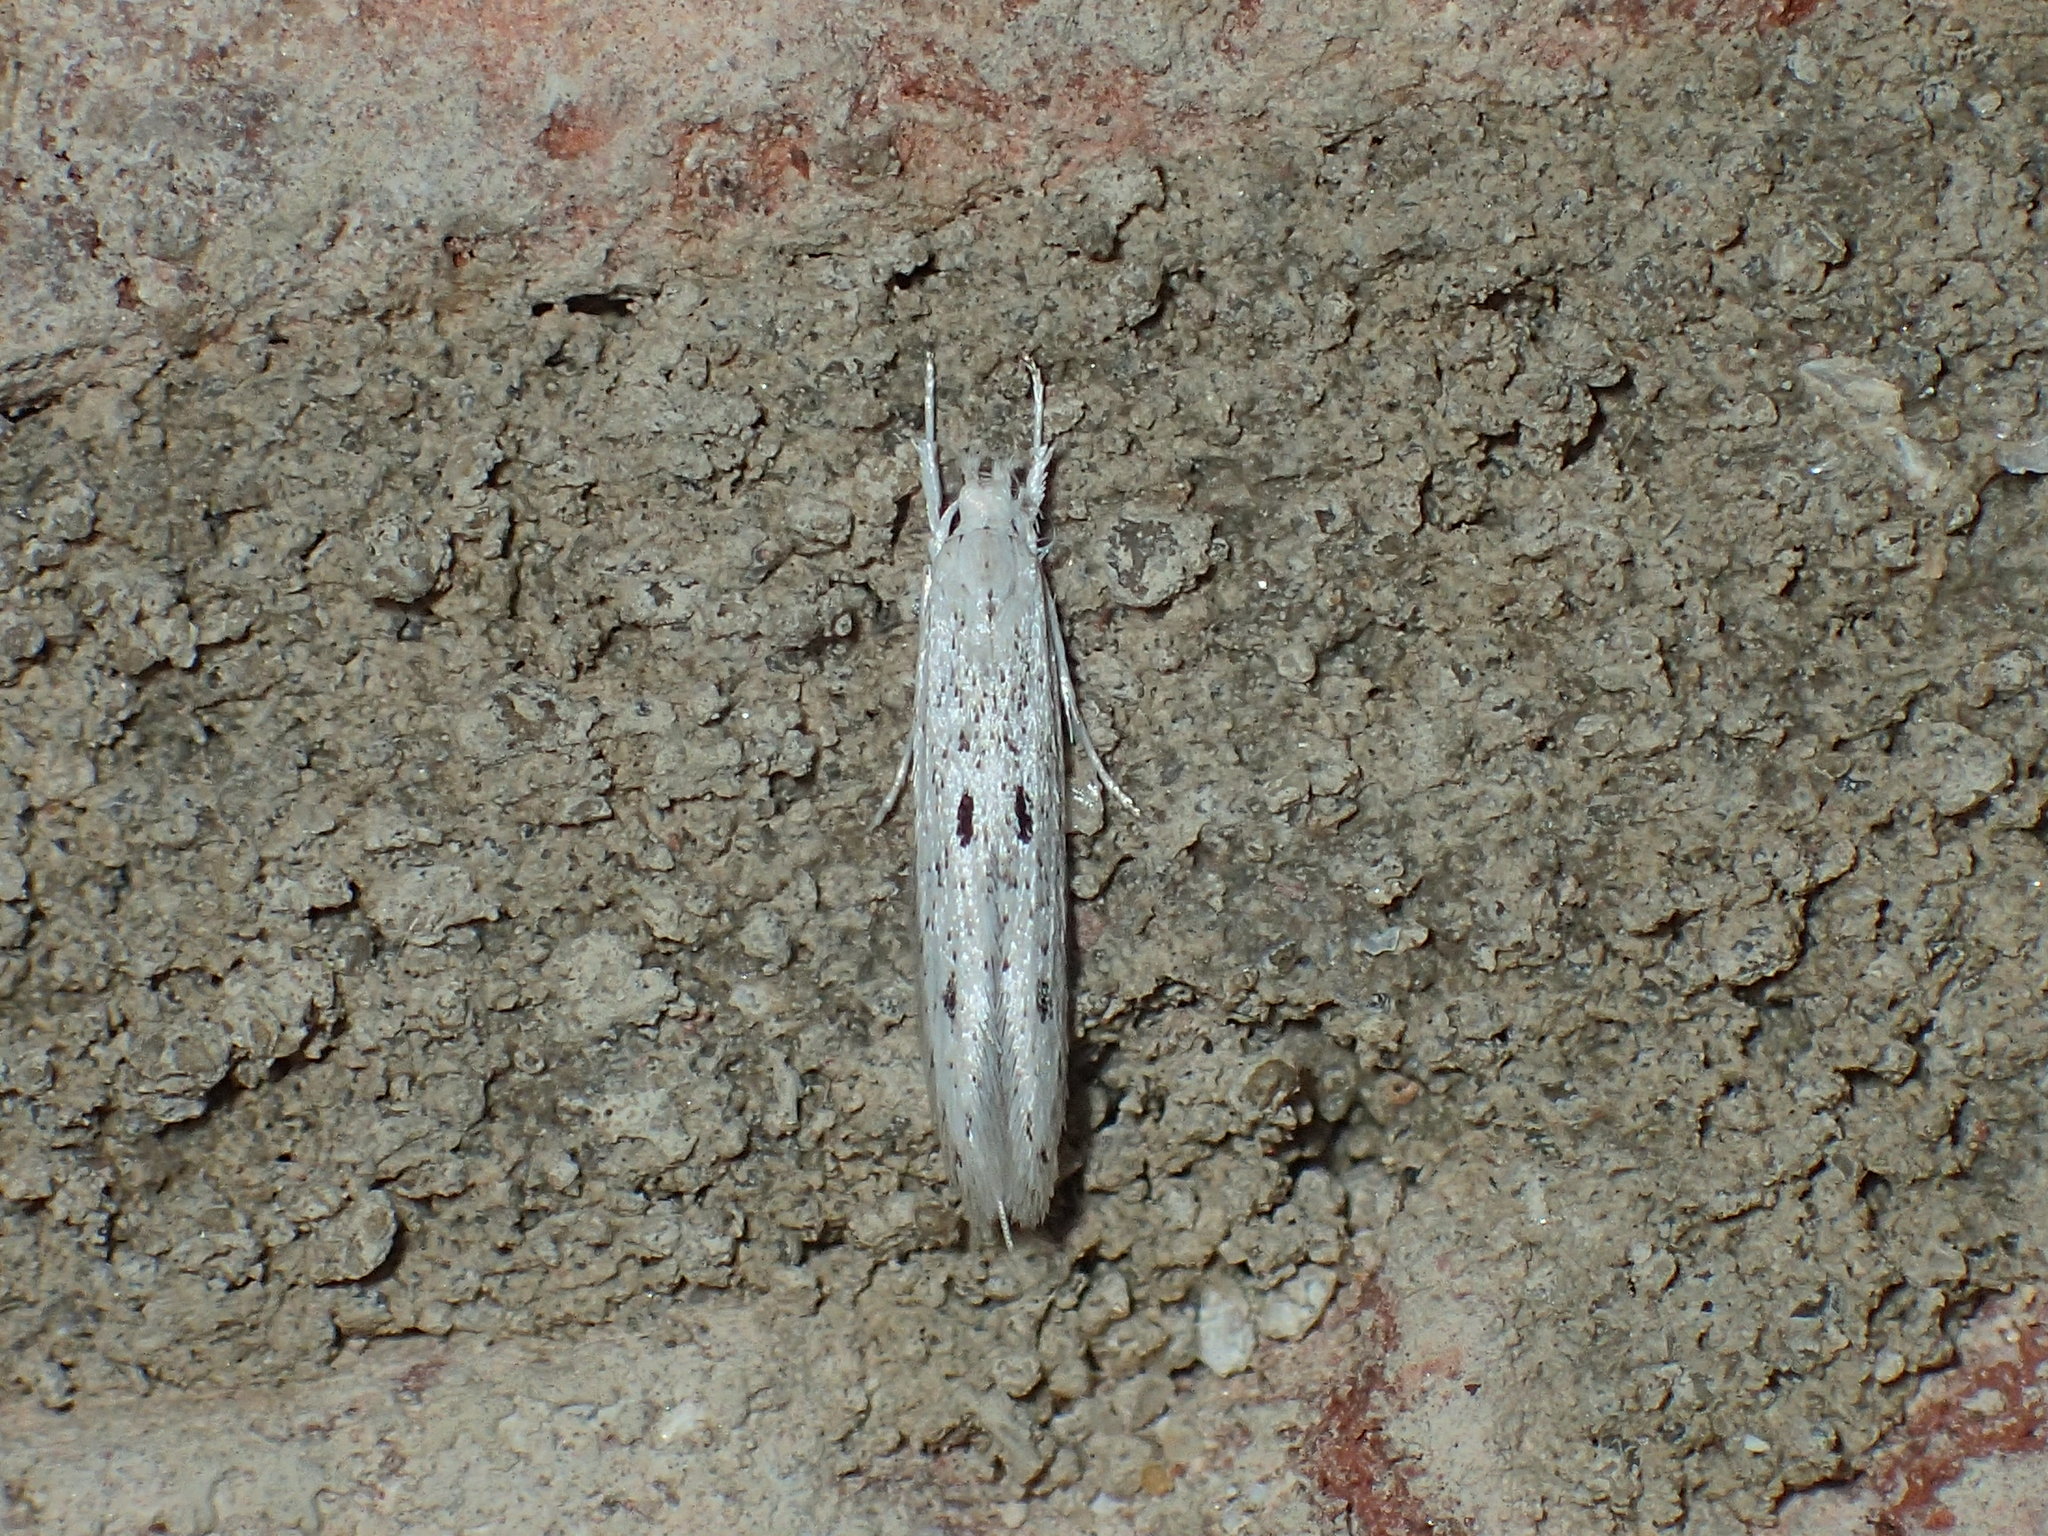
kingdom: Animalia
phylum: Arthropoda
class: Insecta
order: Lepidoptera
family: Coleophoridae
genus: Homaledra
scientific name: Homaledra octagonella
